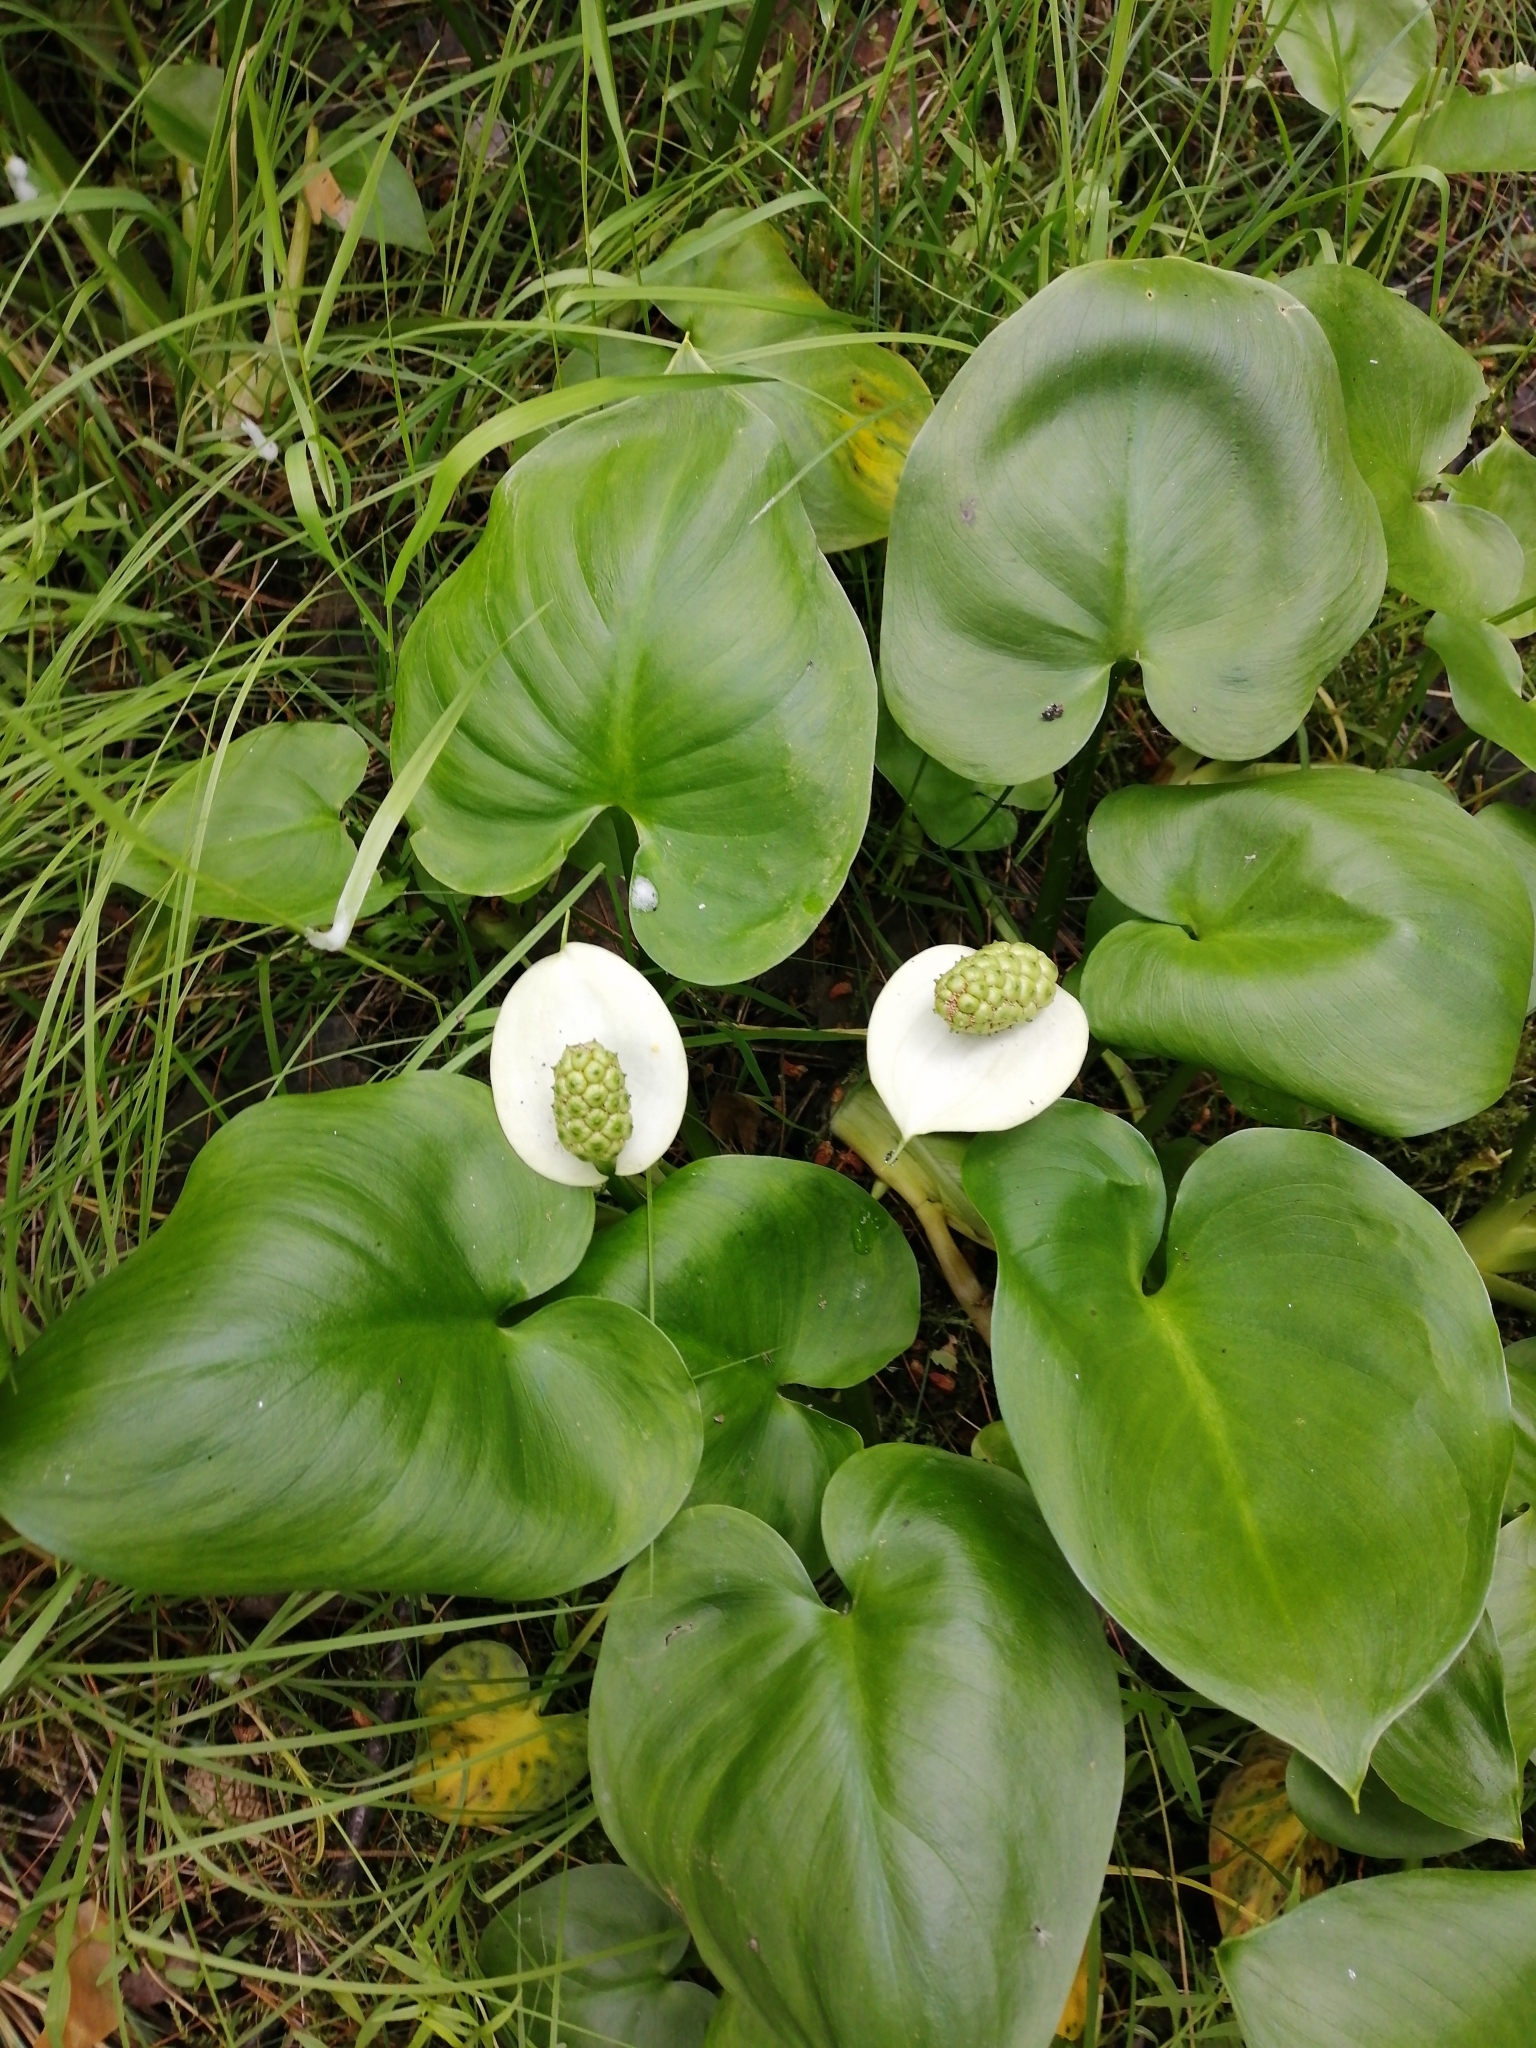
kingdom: Plantae
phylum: Tracheophyta
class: Liliopsida
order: Alismatales
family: Araceae
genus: Calla
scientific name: Calla palustris
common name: Bog arum
